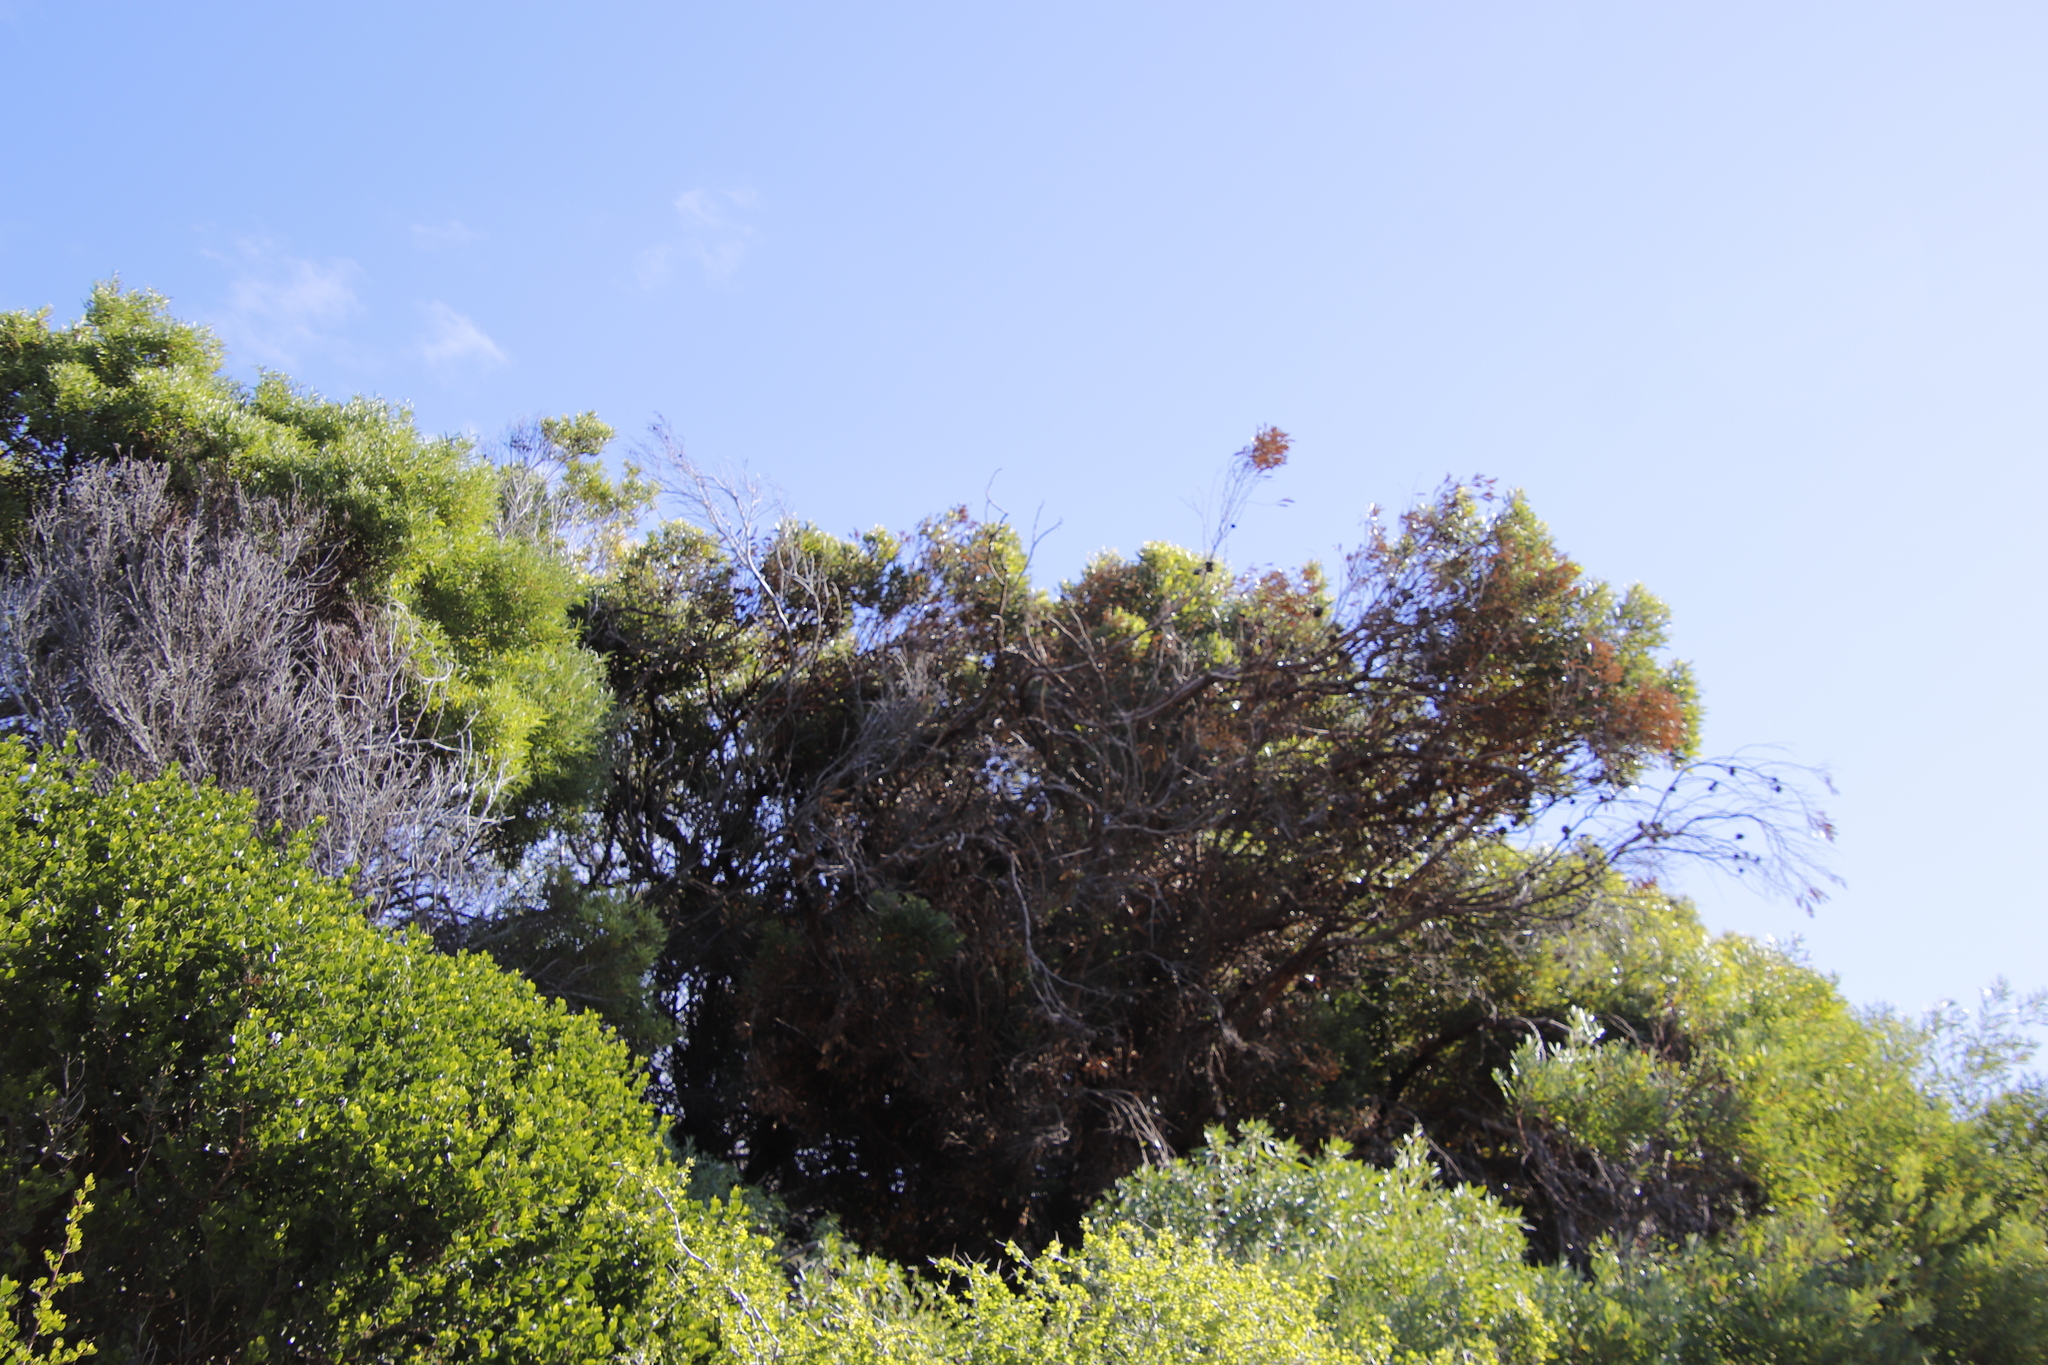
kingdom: Plantae
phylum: Tracheophyta
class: Magnoliopsida
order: Myrtales
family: Myrtaceae
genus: Eucalyptus
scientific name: Eucalyptus conferruminata
